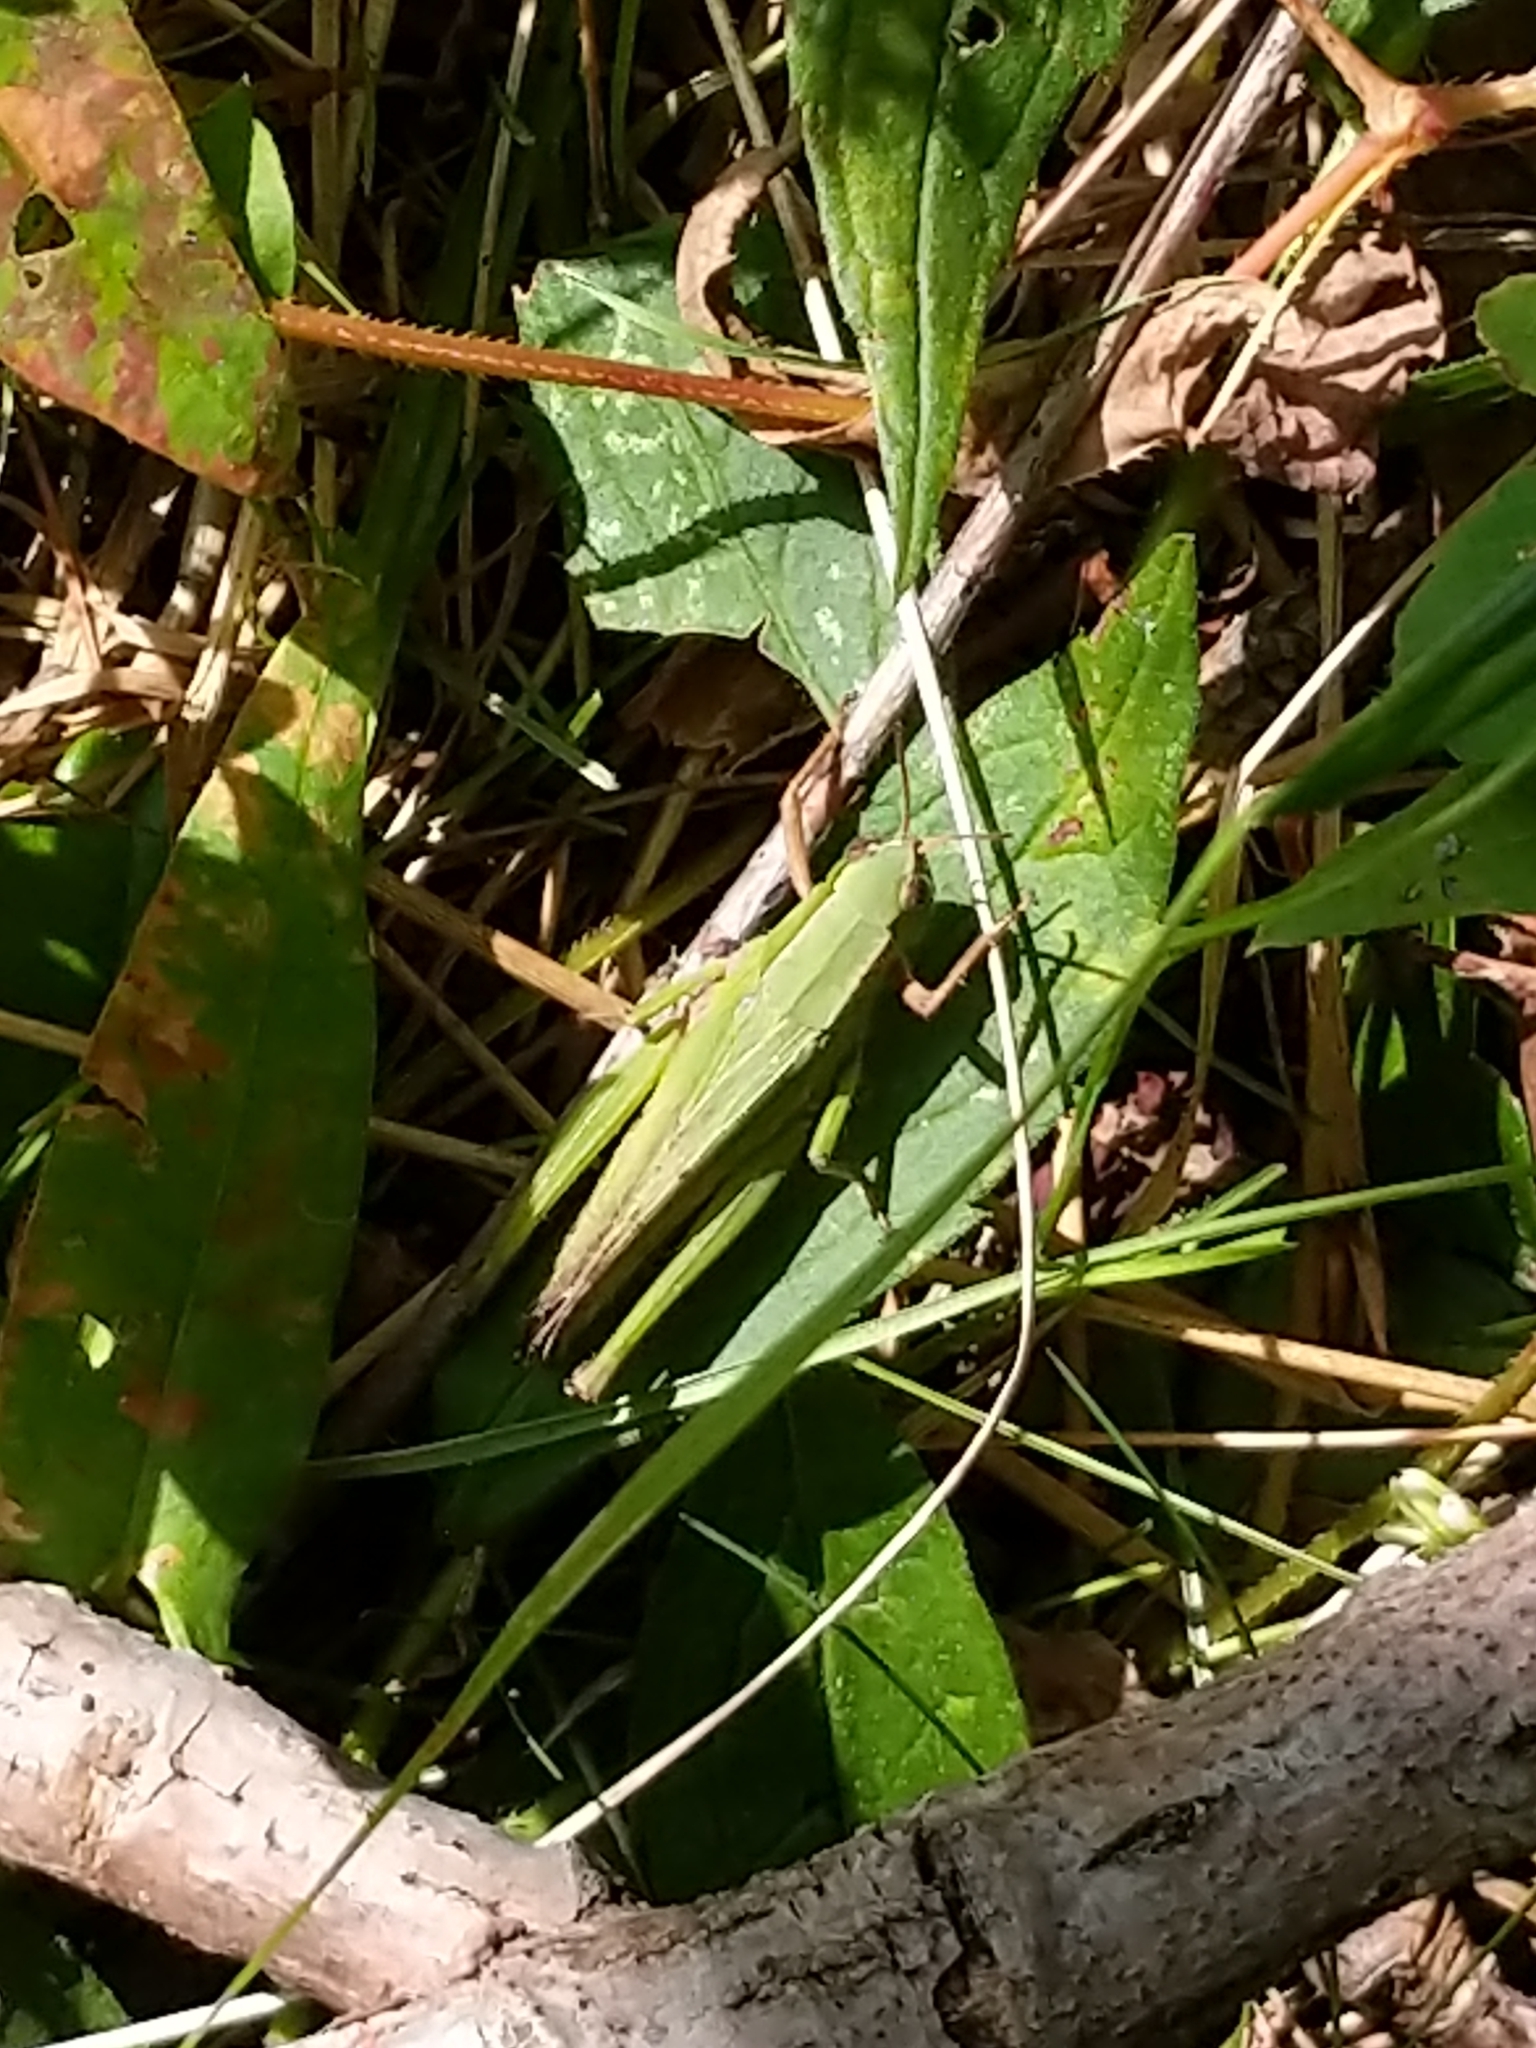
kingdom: Animalia
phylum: Arthropoda
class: Insecta
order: Orthoptera
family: Acrididae
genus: Chortophaga
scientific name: Chortophaga viridifasciata
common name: Green-striped grasshopper
